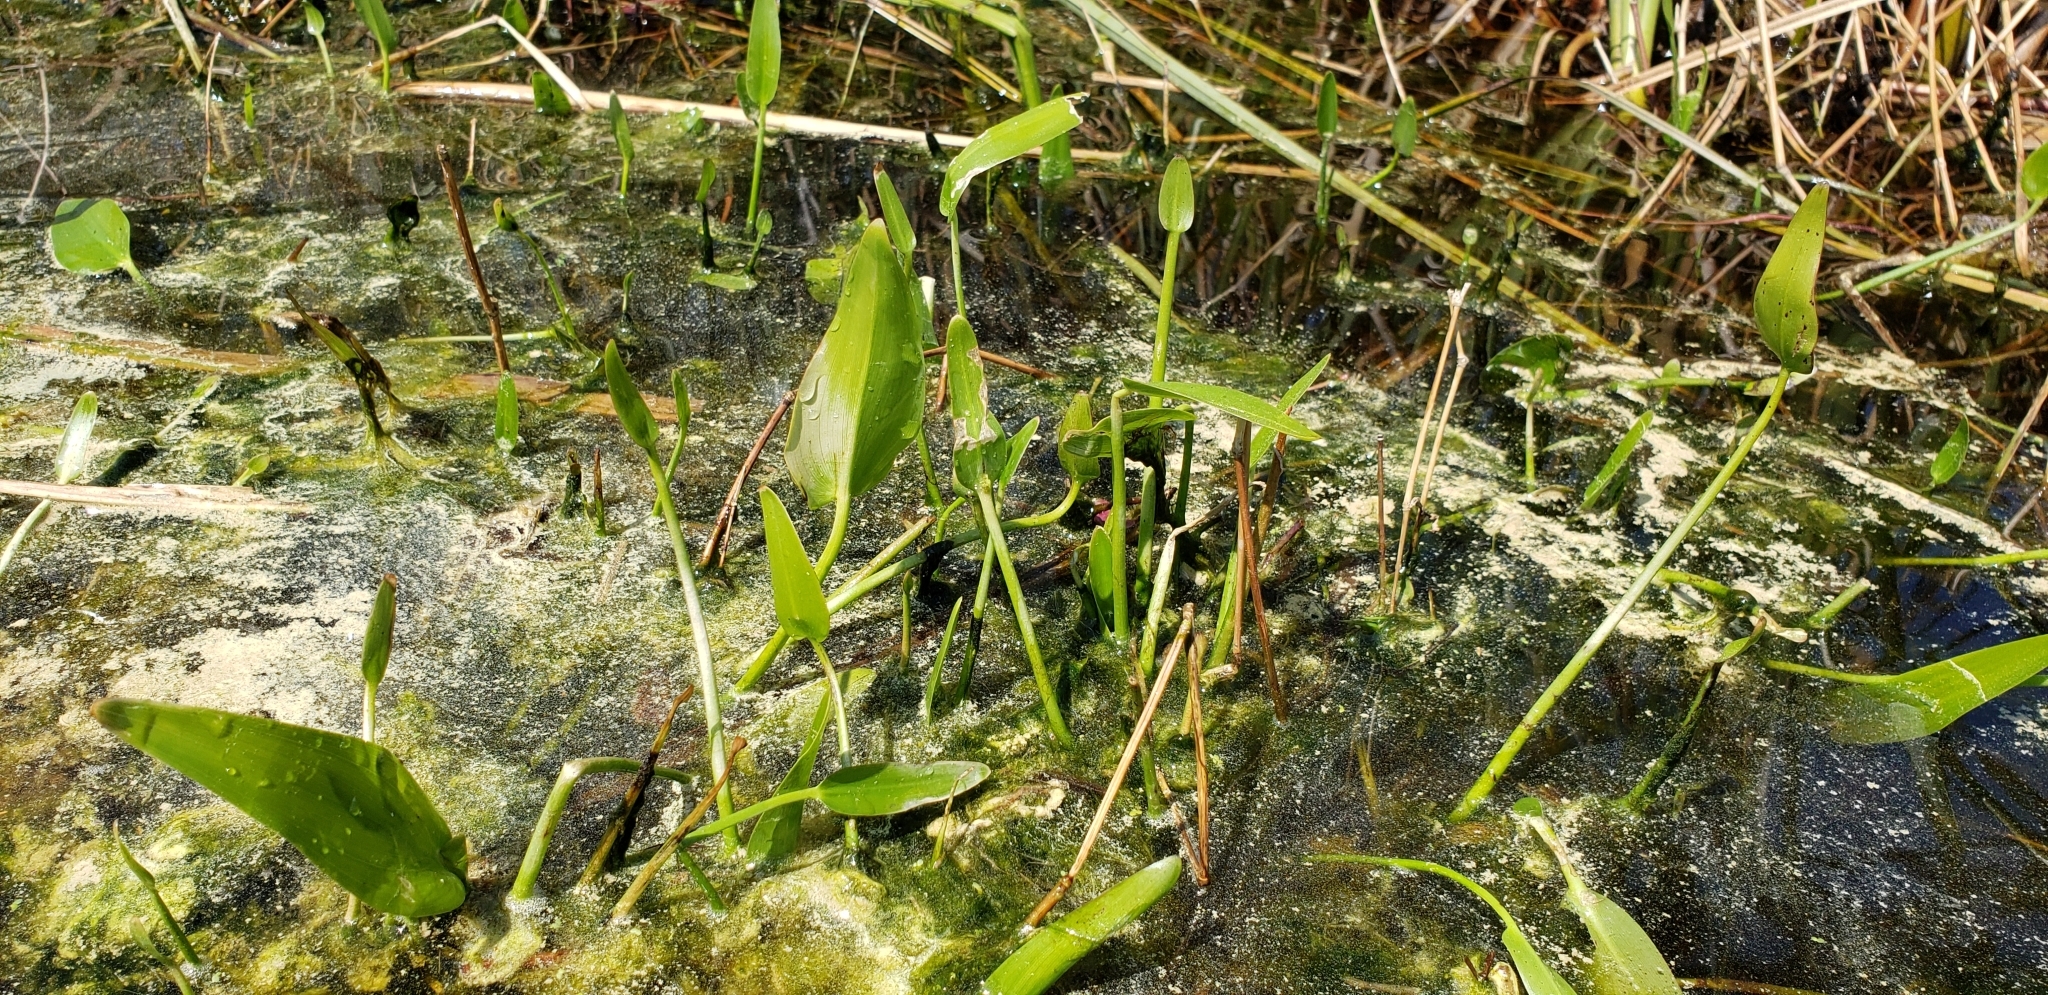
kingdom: Plantae
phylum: Tracheophyta
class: Liliopsida
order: Commelinales
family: Pontederiaceae
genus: Pontederia
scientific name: Pontederia cordata
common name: Pickerelweed
